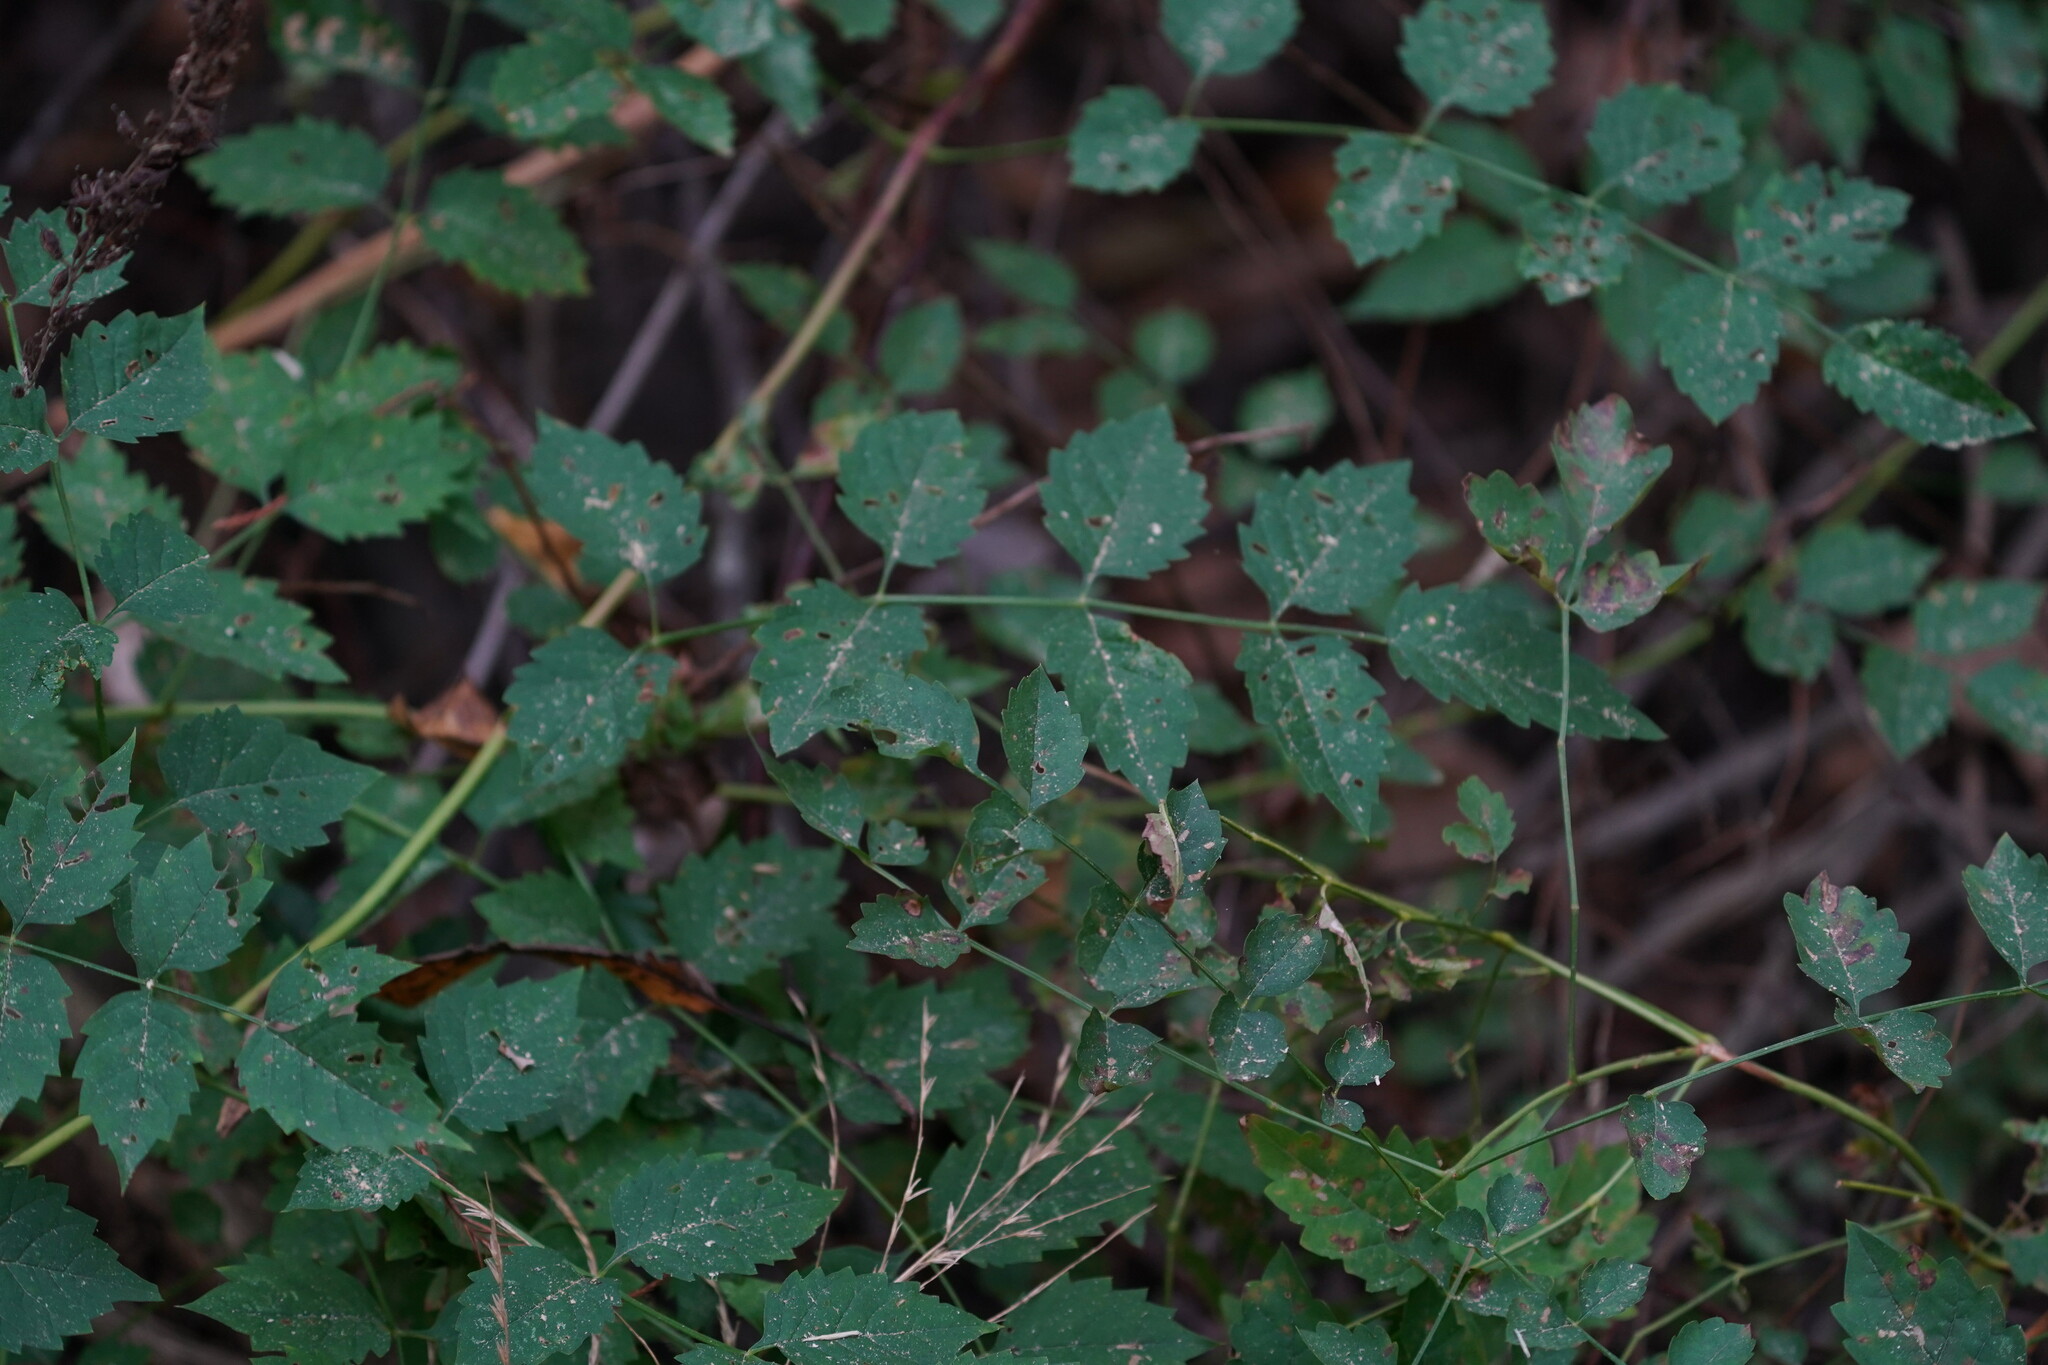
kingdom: Plantae
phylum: Tracheophyta
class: Magnoliopsida
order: Lamiales
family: Bignoniaceae
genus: Campsis
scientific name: Campsis radicans
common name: Trumpet-creeper
